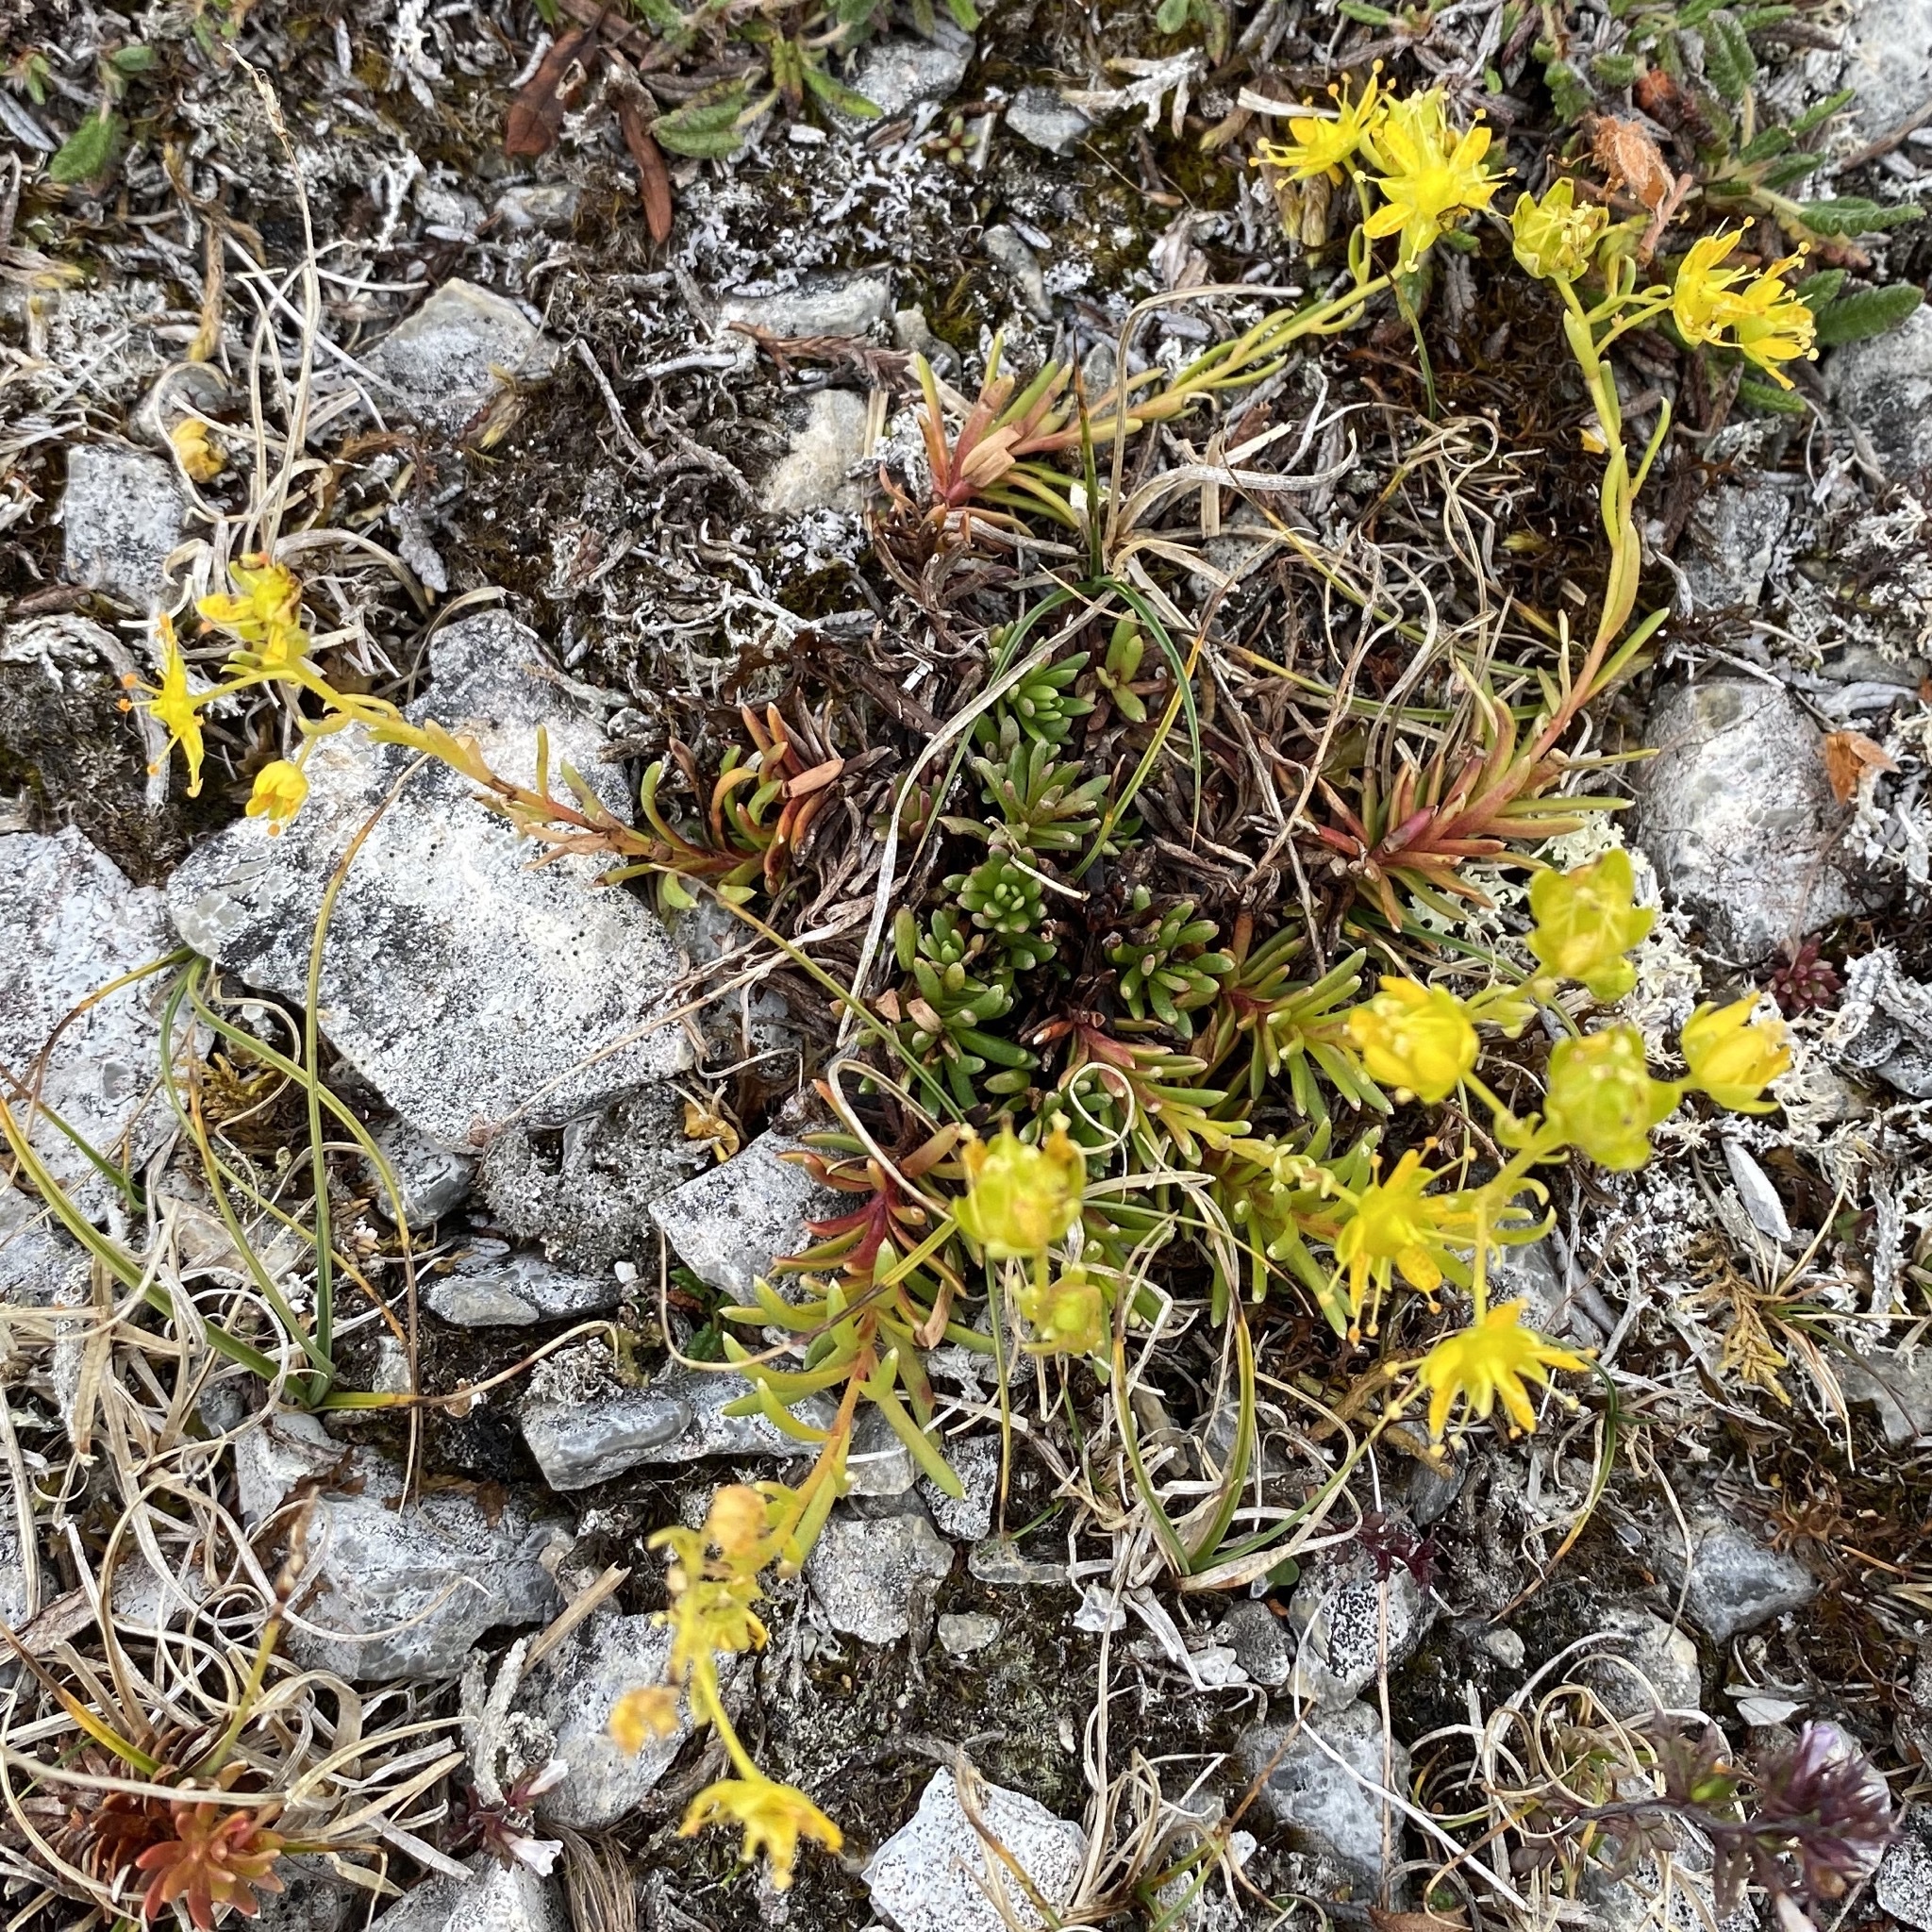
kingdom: Plantae
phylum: Tracheophyta
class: Magnoliopsida
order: Saxifragales
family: Saxifragaceae
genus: Saxifraga
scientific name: Saxifraga aizoides
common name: Yellow mountain saxifrage
